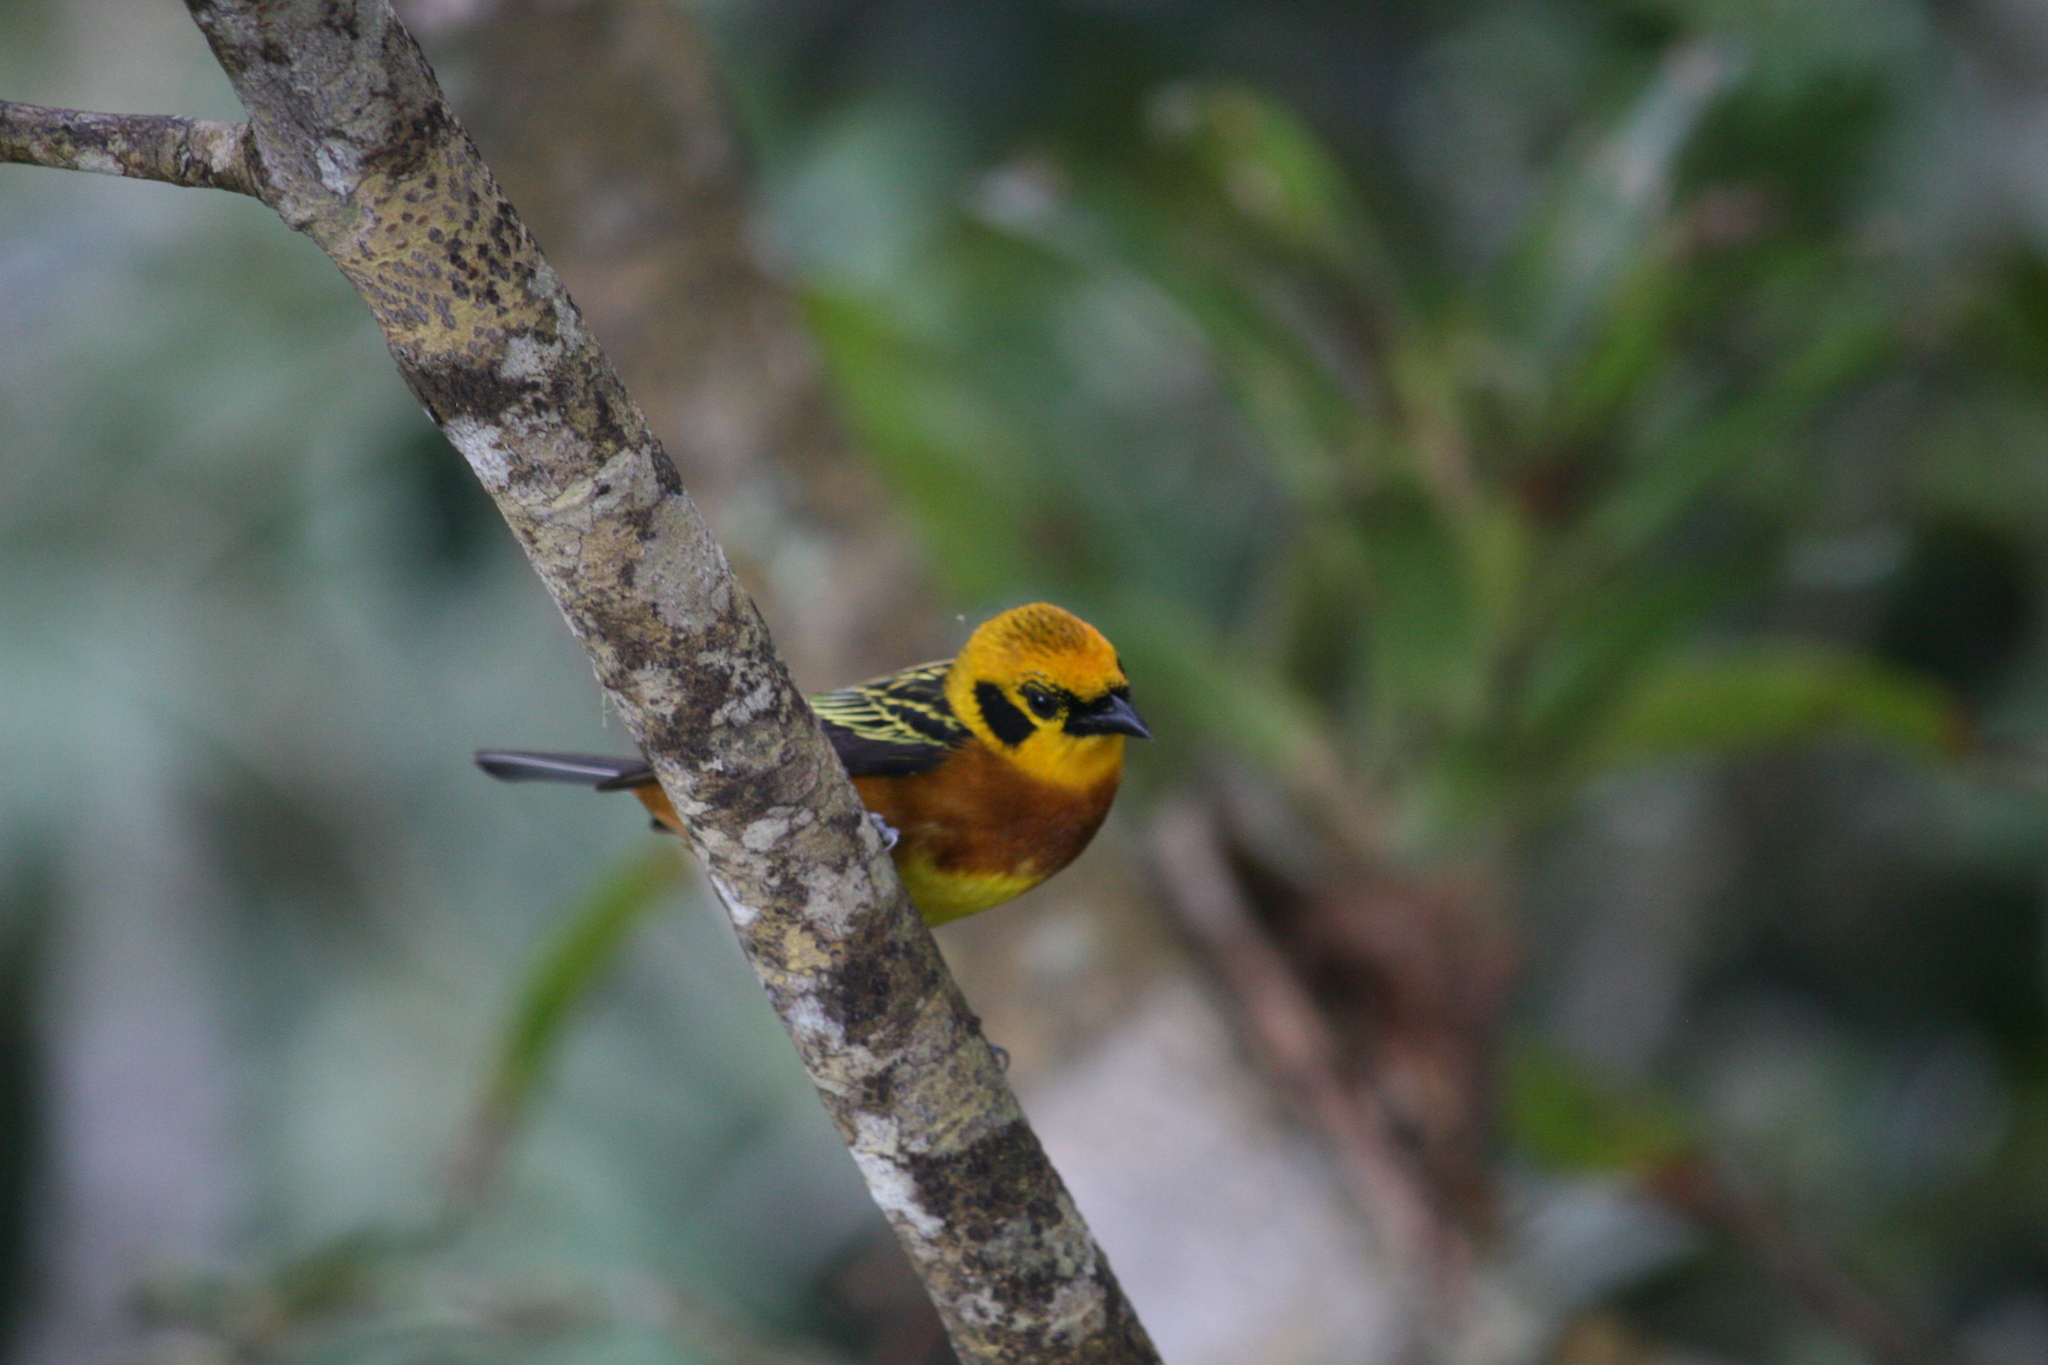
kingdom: Animalia
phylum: Chordata
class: Aves
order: Passeriformes
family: Thraupidae
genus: Tangara
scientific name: Tangara arthus
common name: Golden tanager
